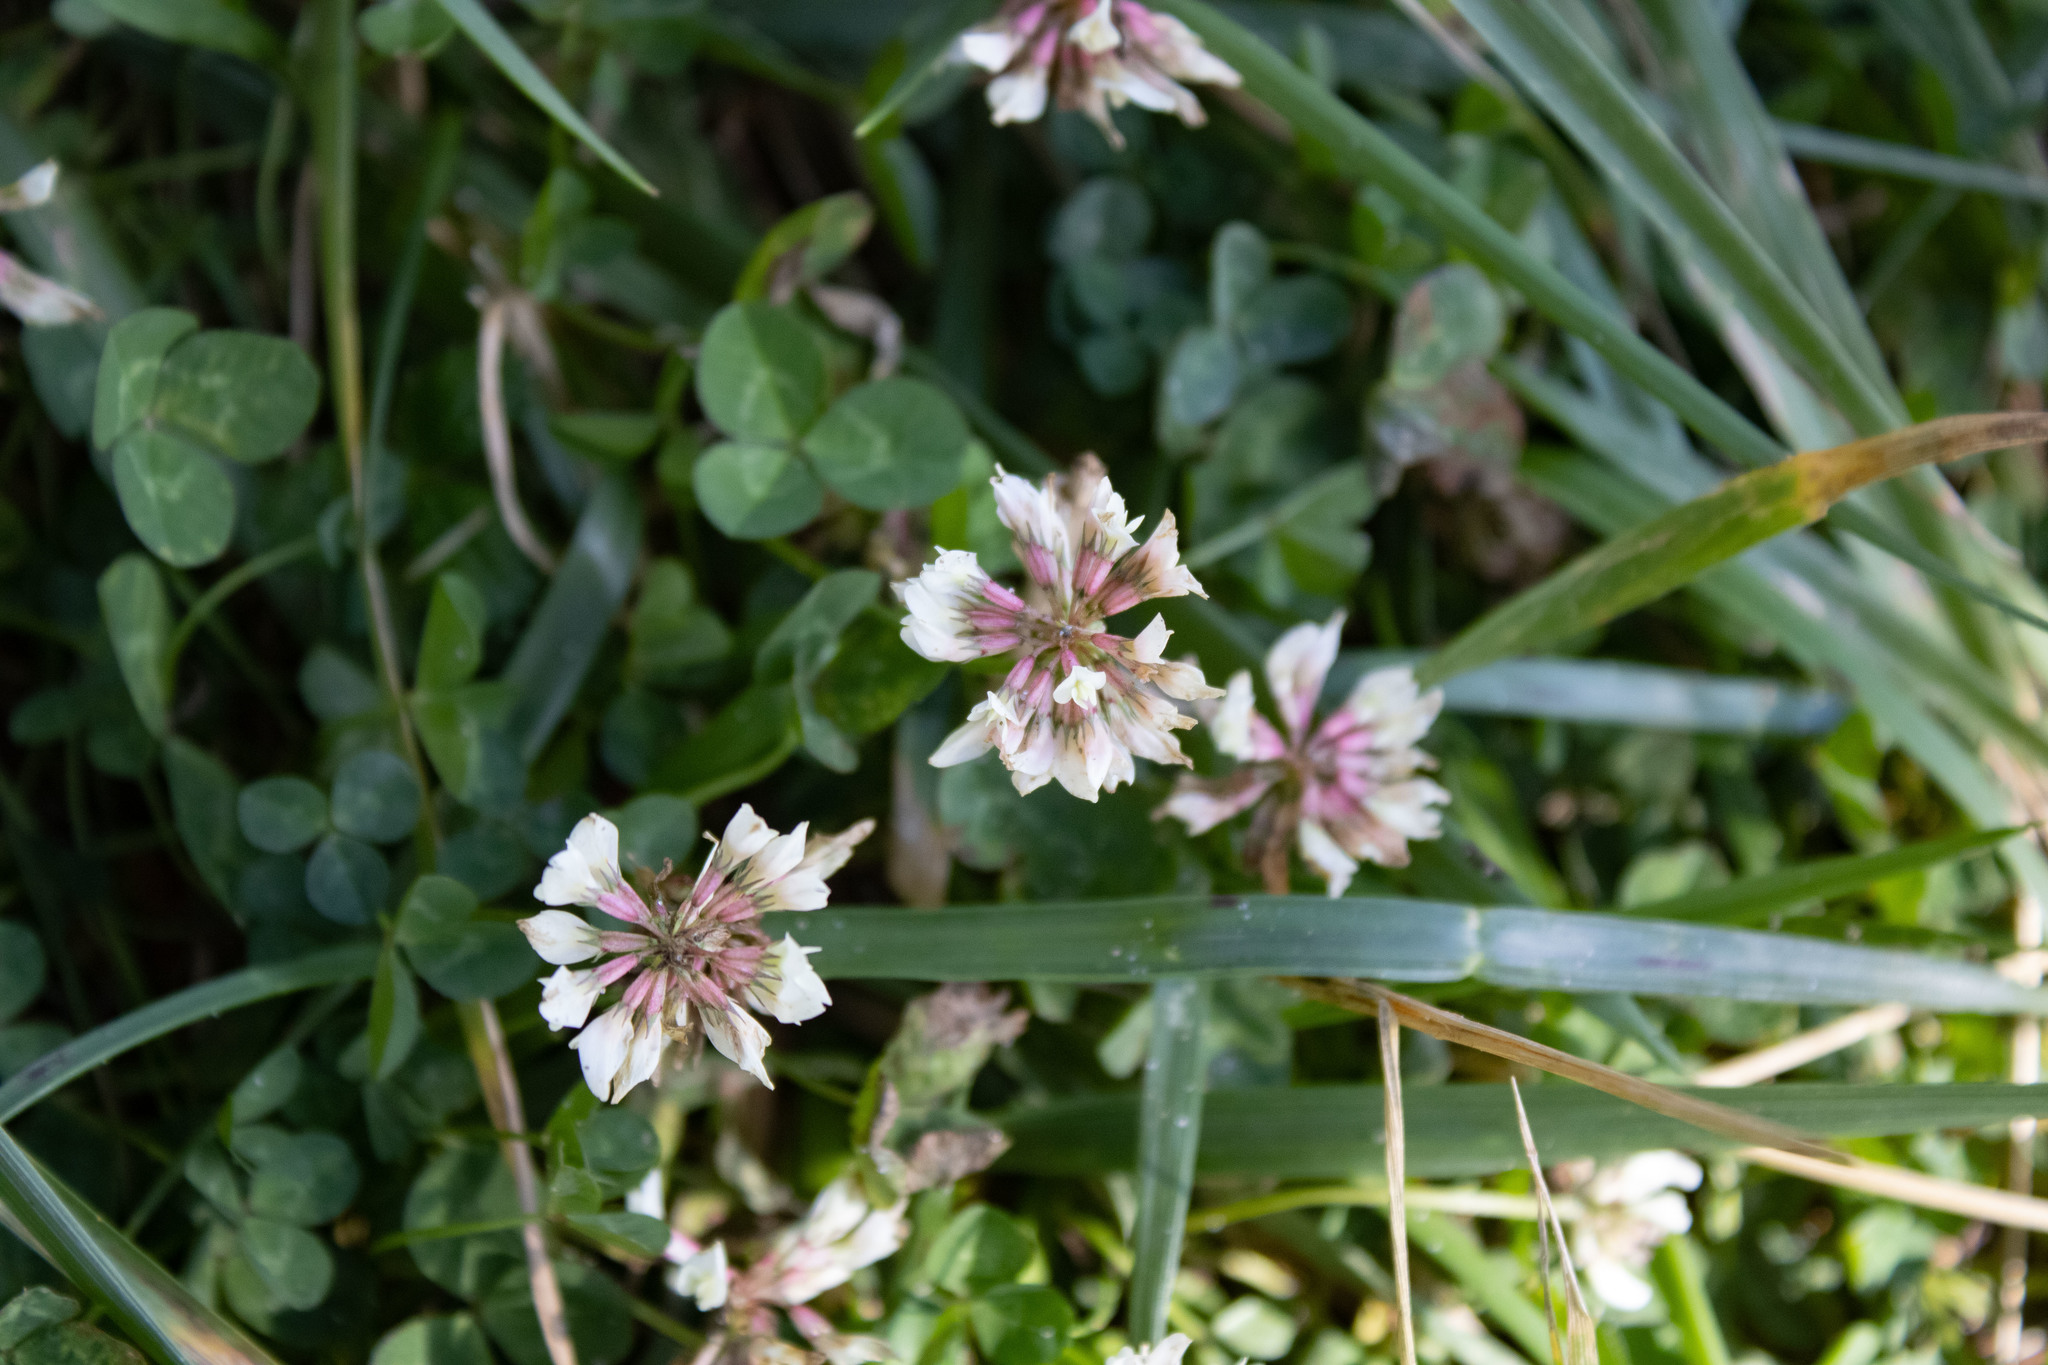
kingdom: Plantae
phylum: Tracheophyta
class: Magnoliopsida
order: Fabales
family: Fabaceae
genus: Trifolium
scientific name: Trifolium repens
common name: White clover
